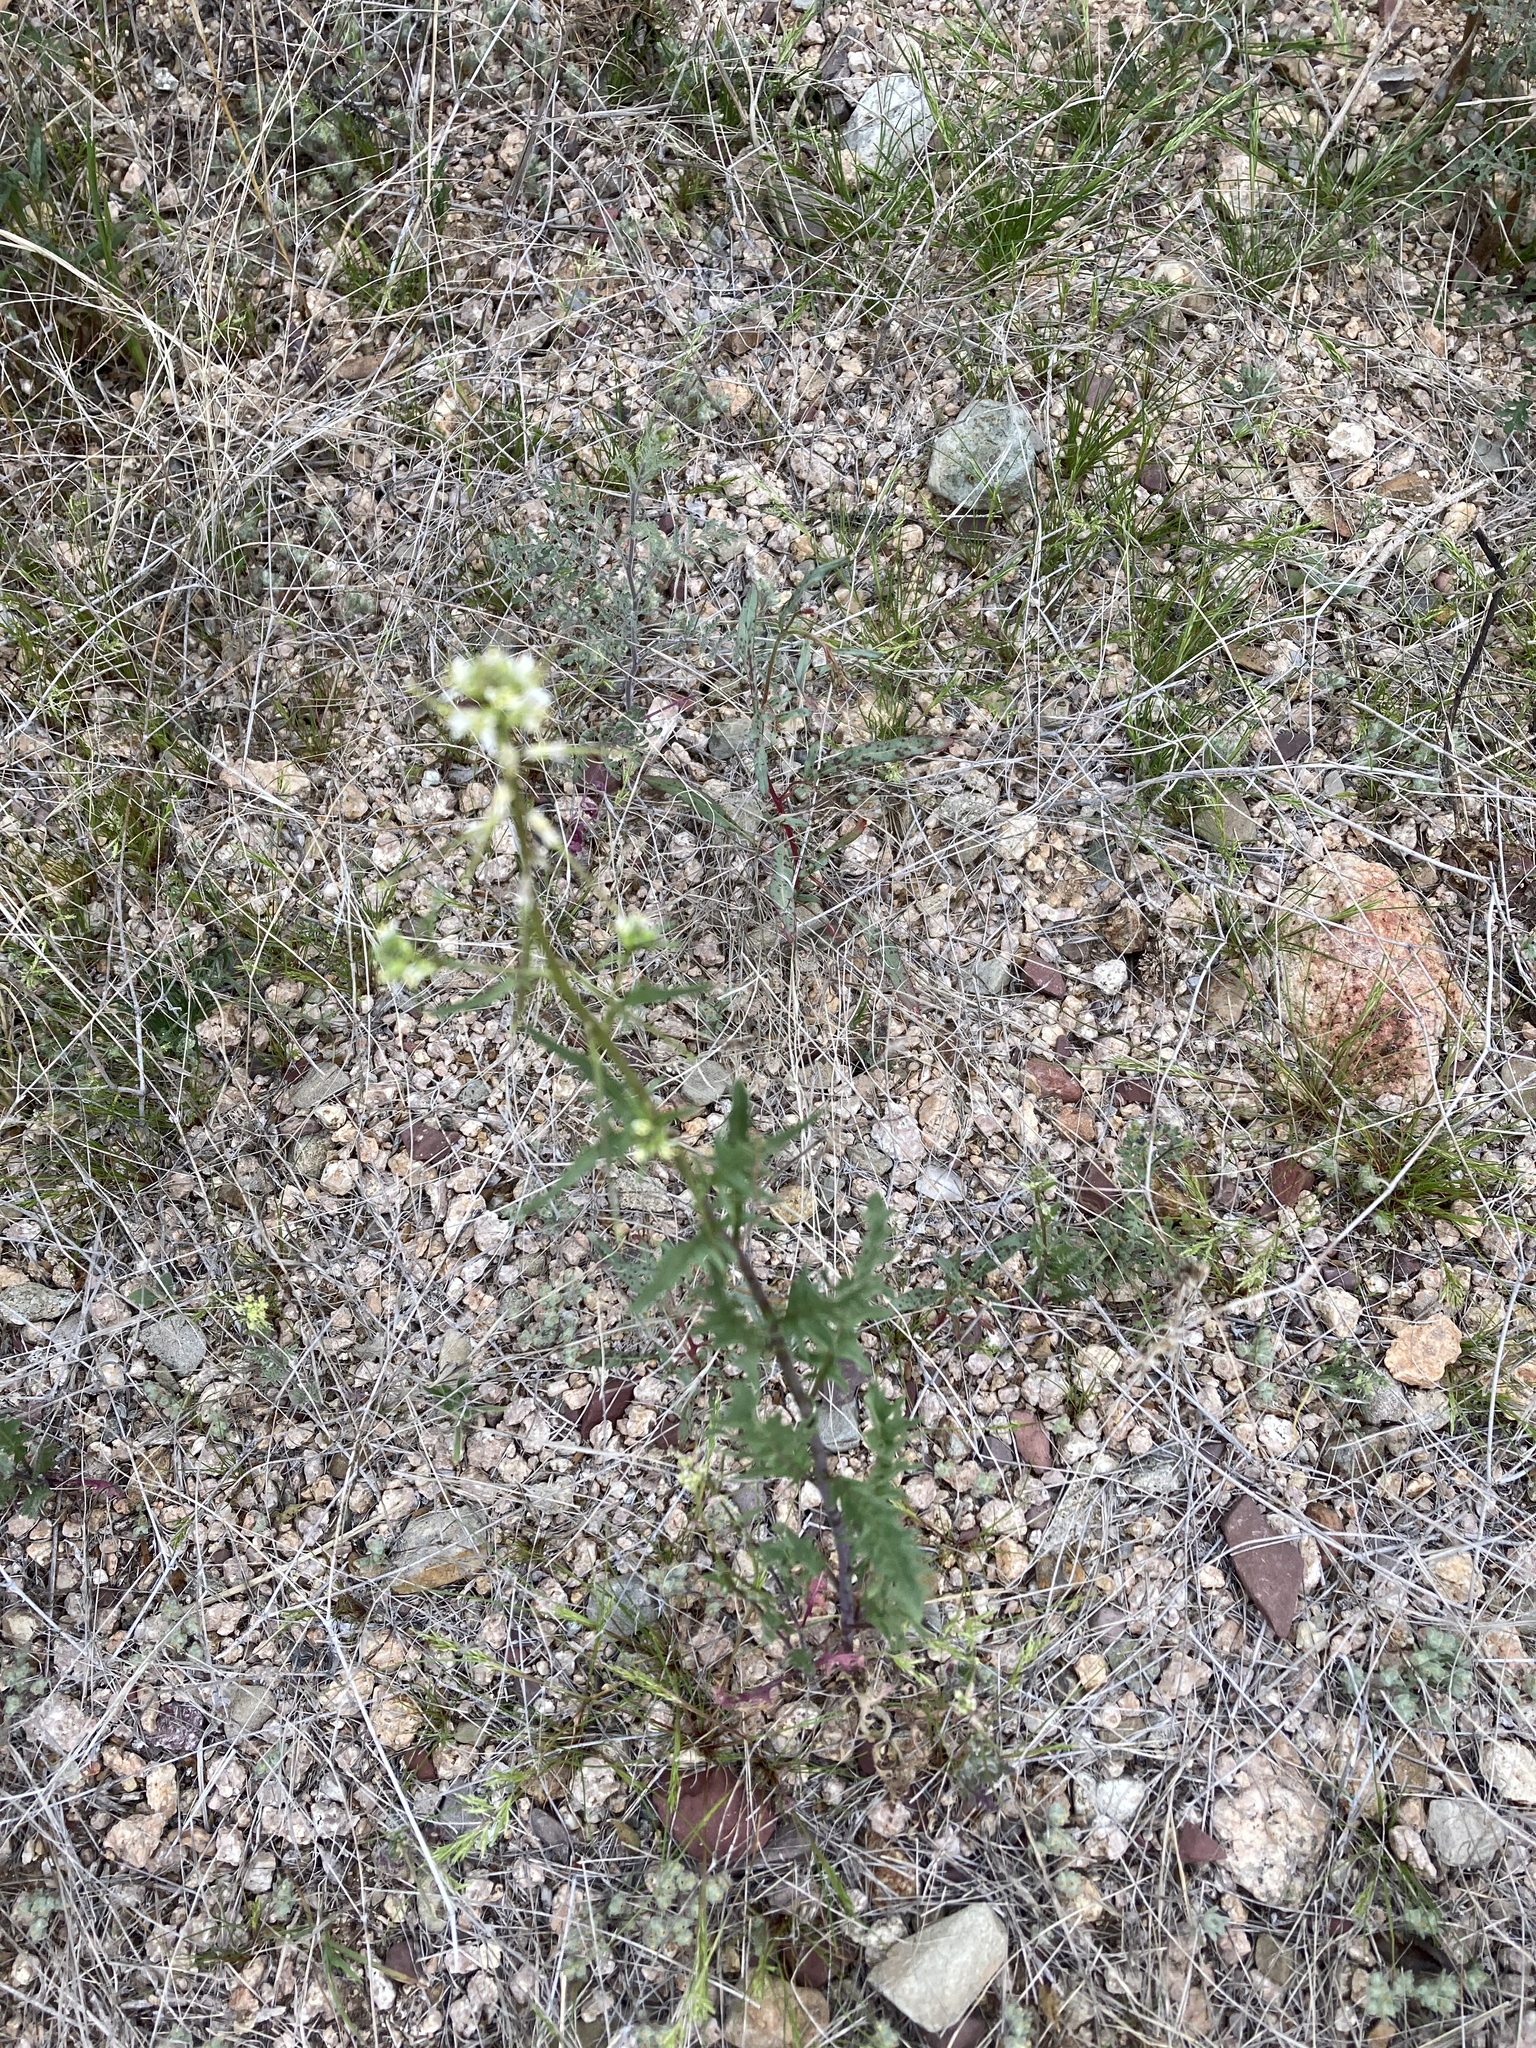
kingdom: Plantae
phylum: Tracheophyta
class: Magnoliopsida
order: Brassicales
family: Brassicaceae
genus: Streptanthus
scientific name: Streptanthus carinatus
